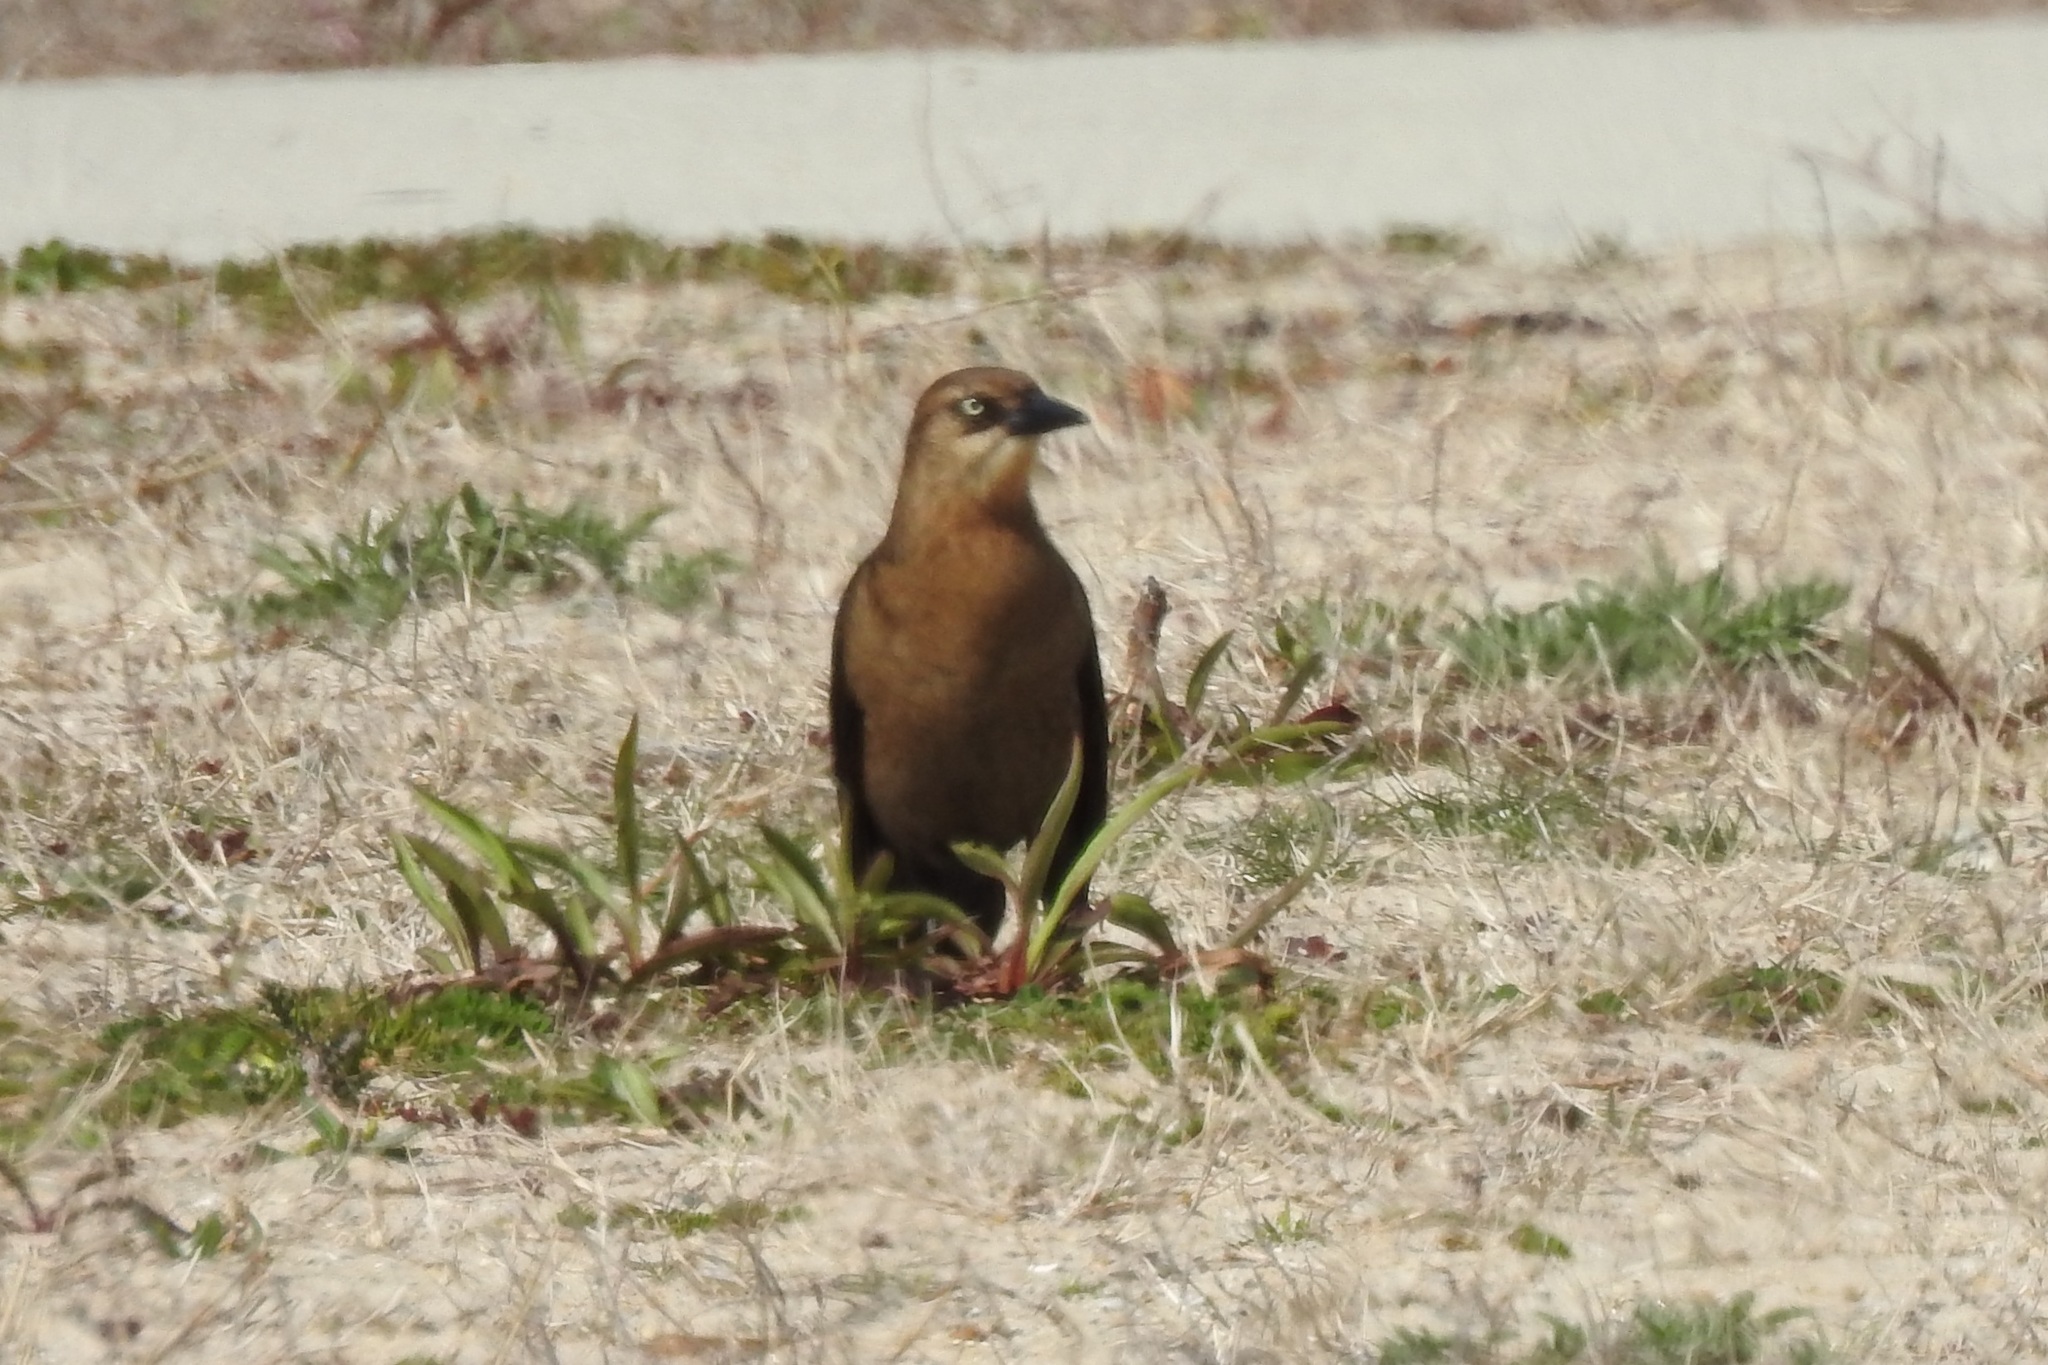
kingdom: Animalia
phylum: Chordata
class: Aves
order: Passeriformes
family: Icteridae
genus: Quiscalus
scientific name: Quiscalus major
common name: Boat-tailed grackle
